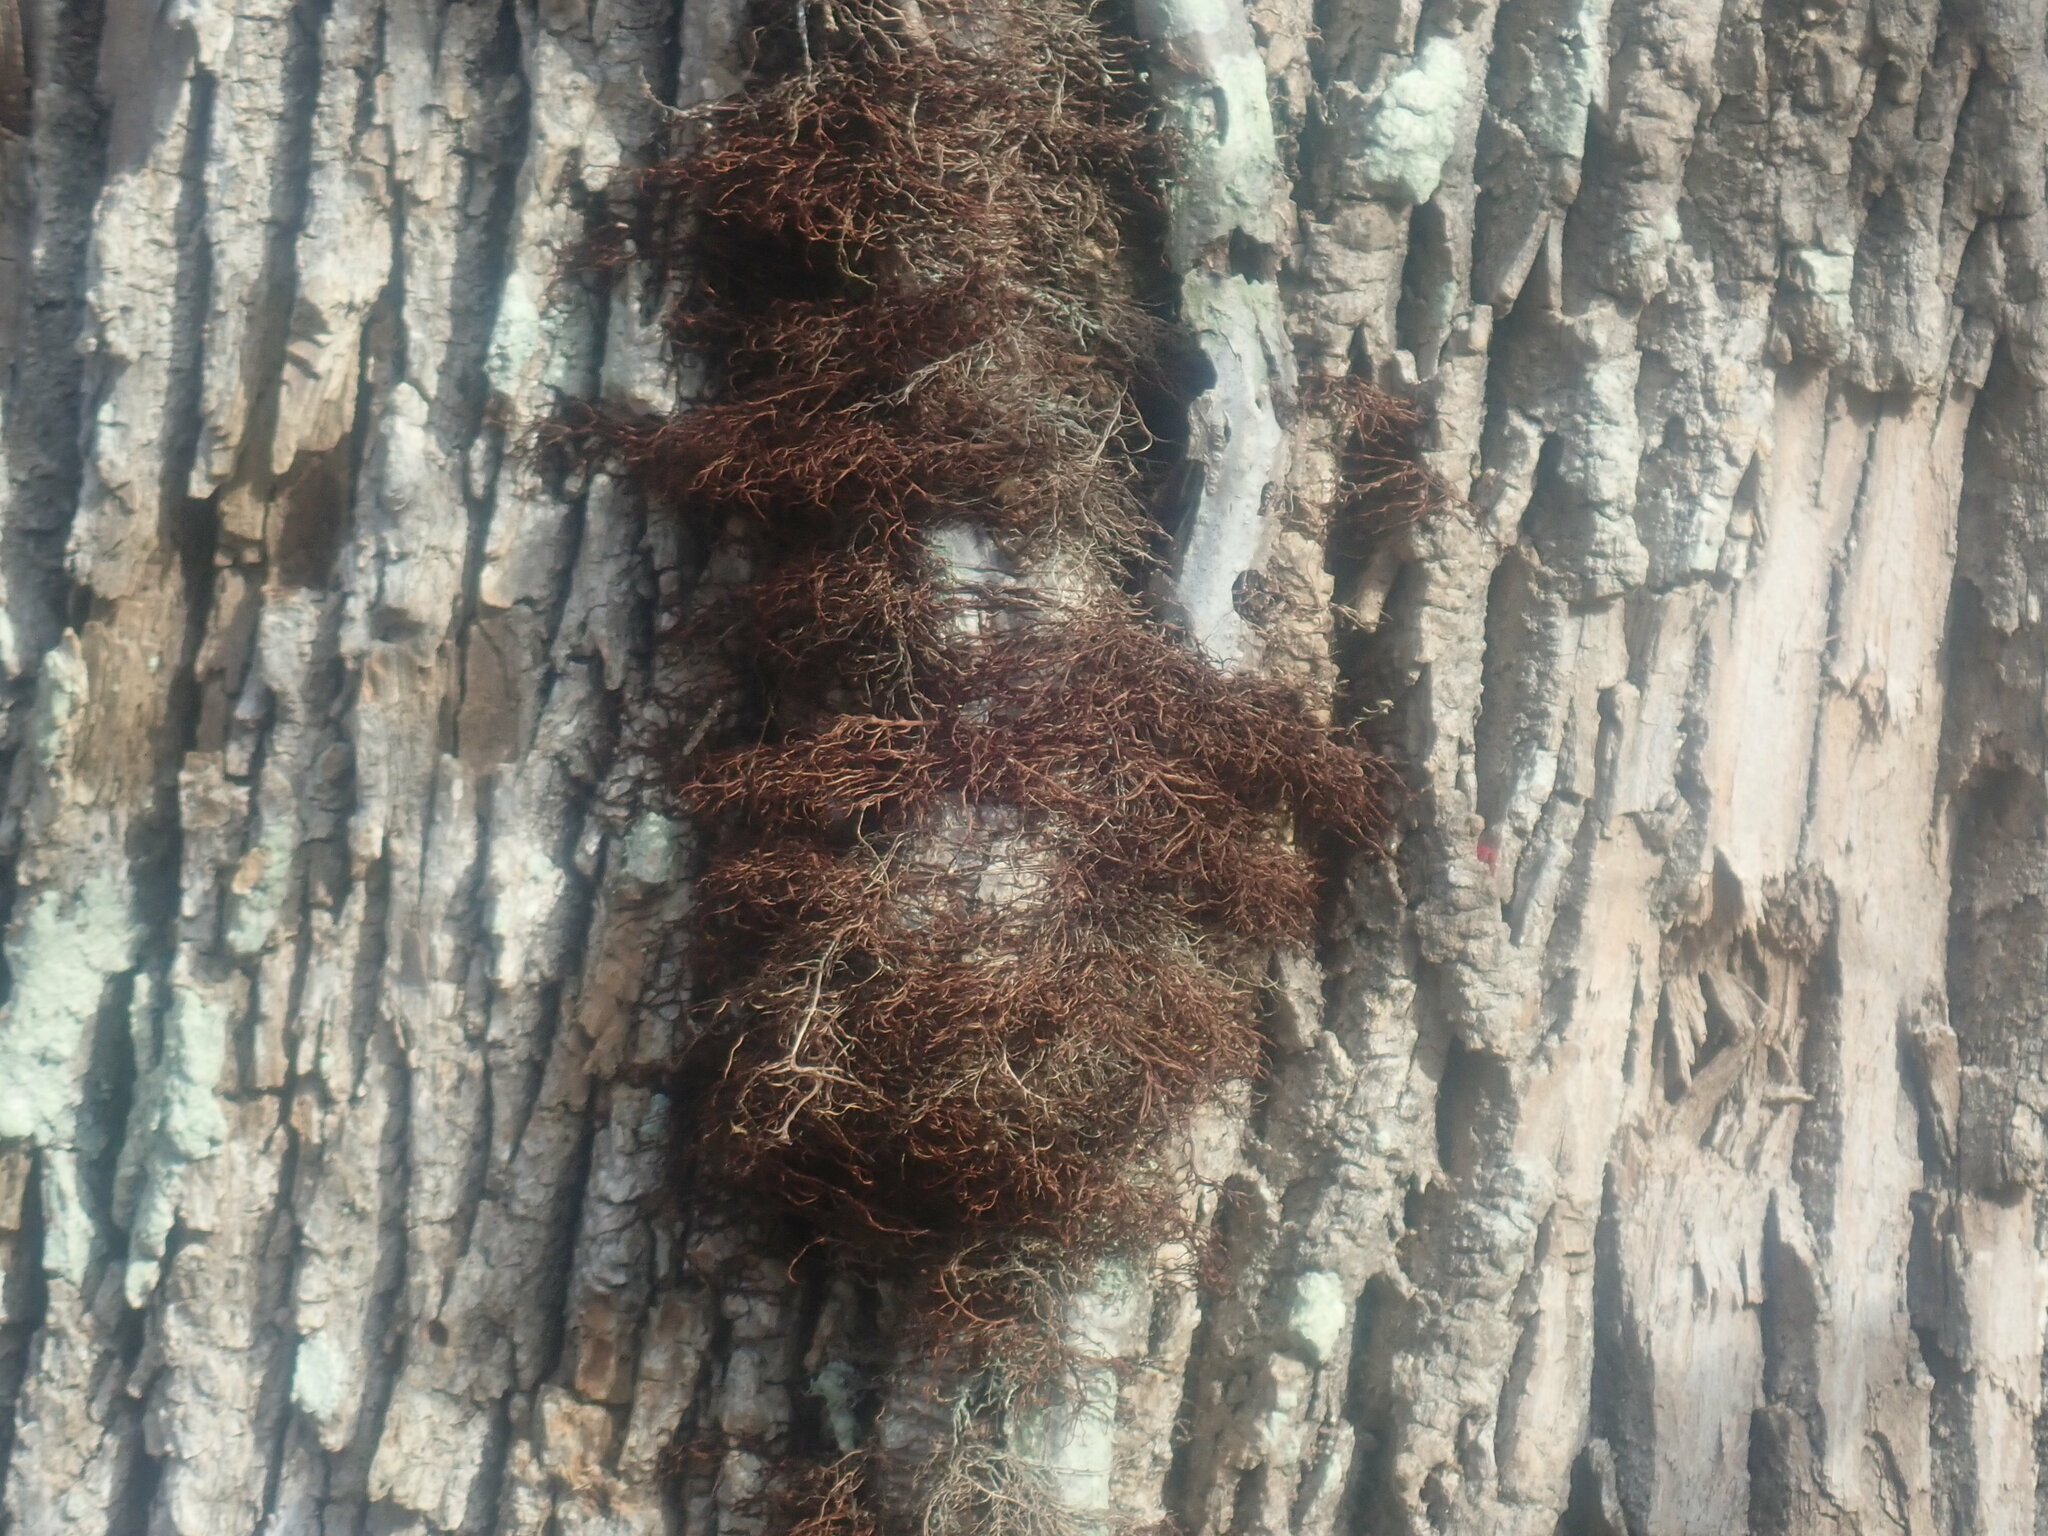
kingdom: Plantae
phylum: Tracheophyta
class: Magnoliopsida
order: Sapindales
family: Anacardiaceae
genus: Toxicodendron
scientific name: Toxicodendron radicans
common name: Poison ivy
